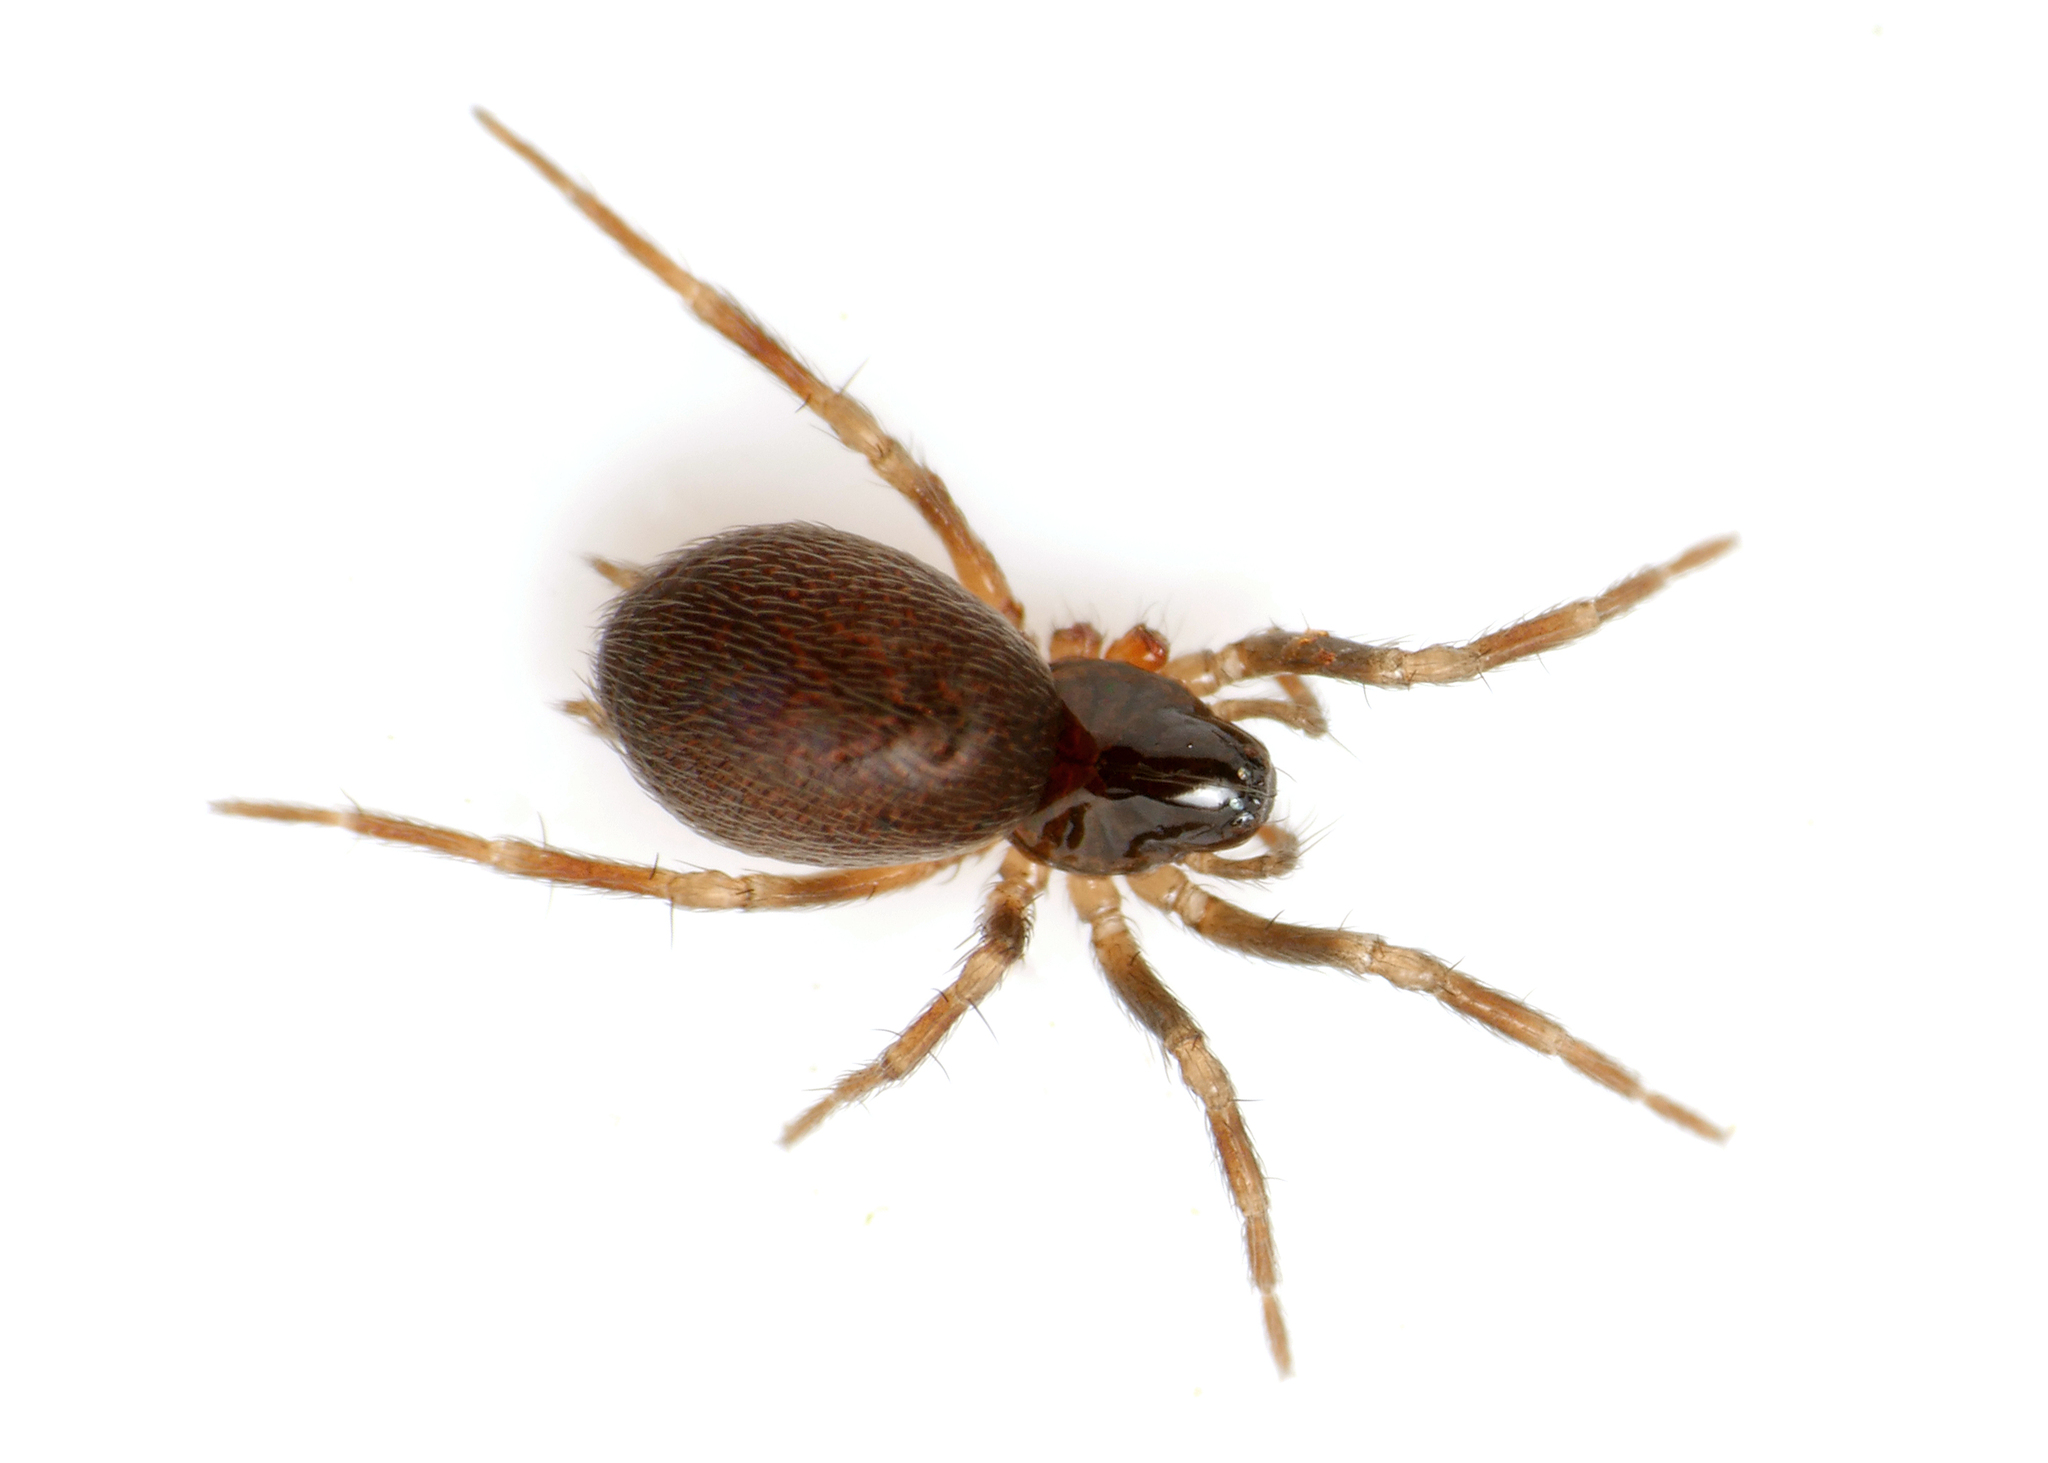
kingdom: Animalia
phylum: Arthropoda
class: Arachnida
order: Araneae
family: Hahniidae
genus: Hahnia
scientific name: Hahnia ononidum
